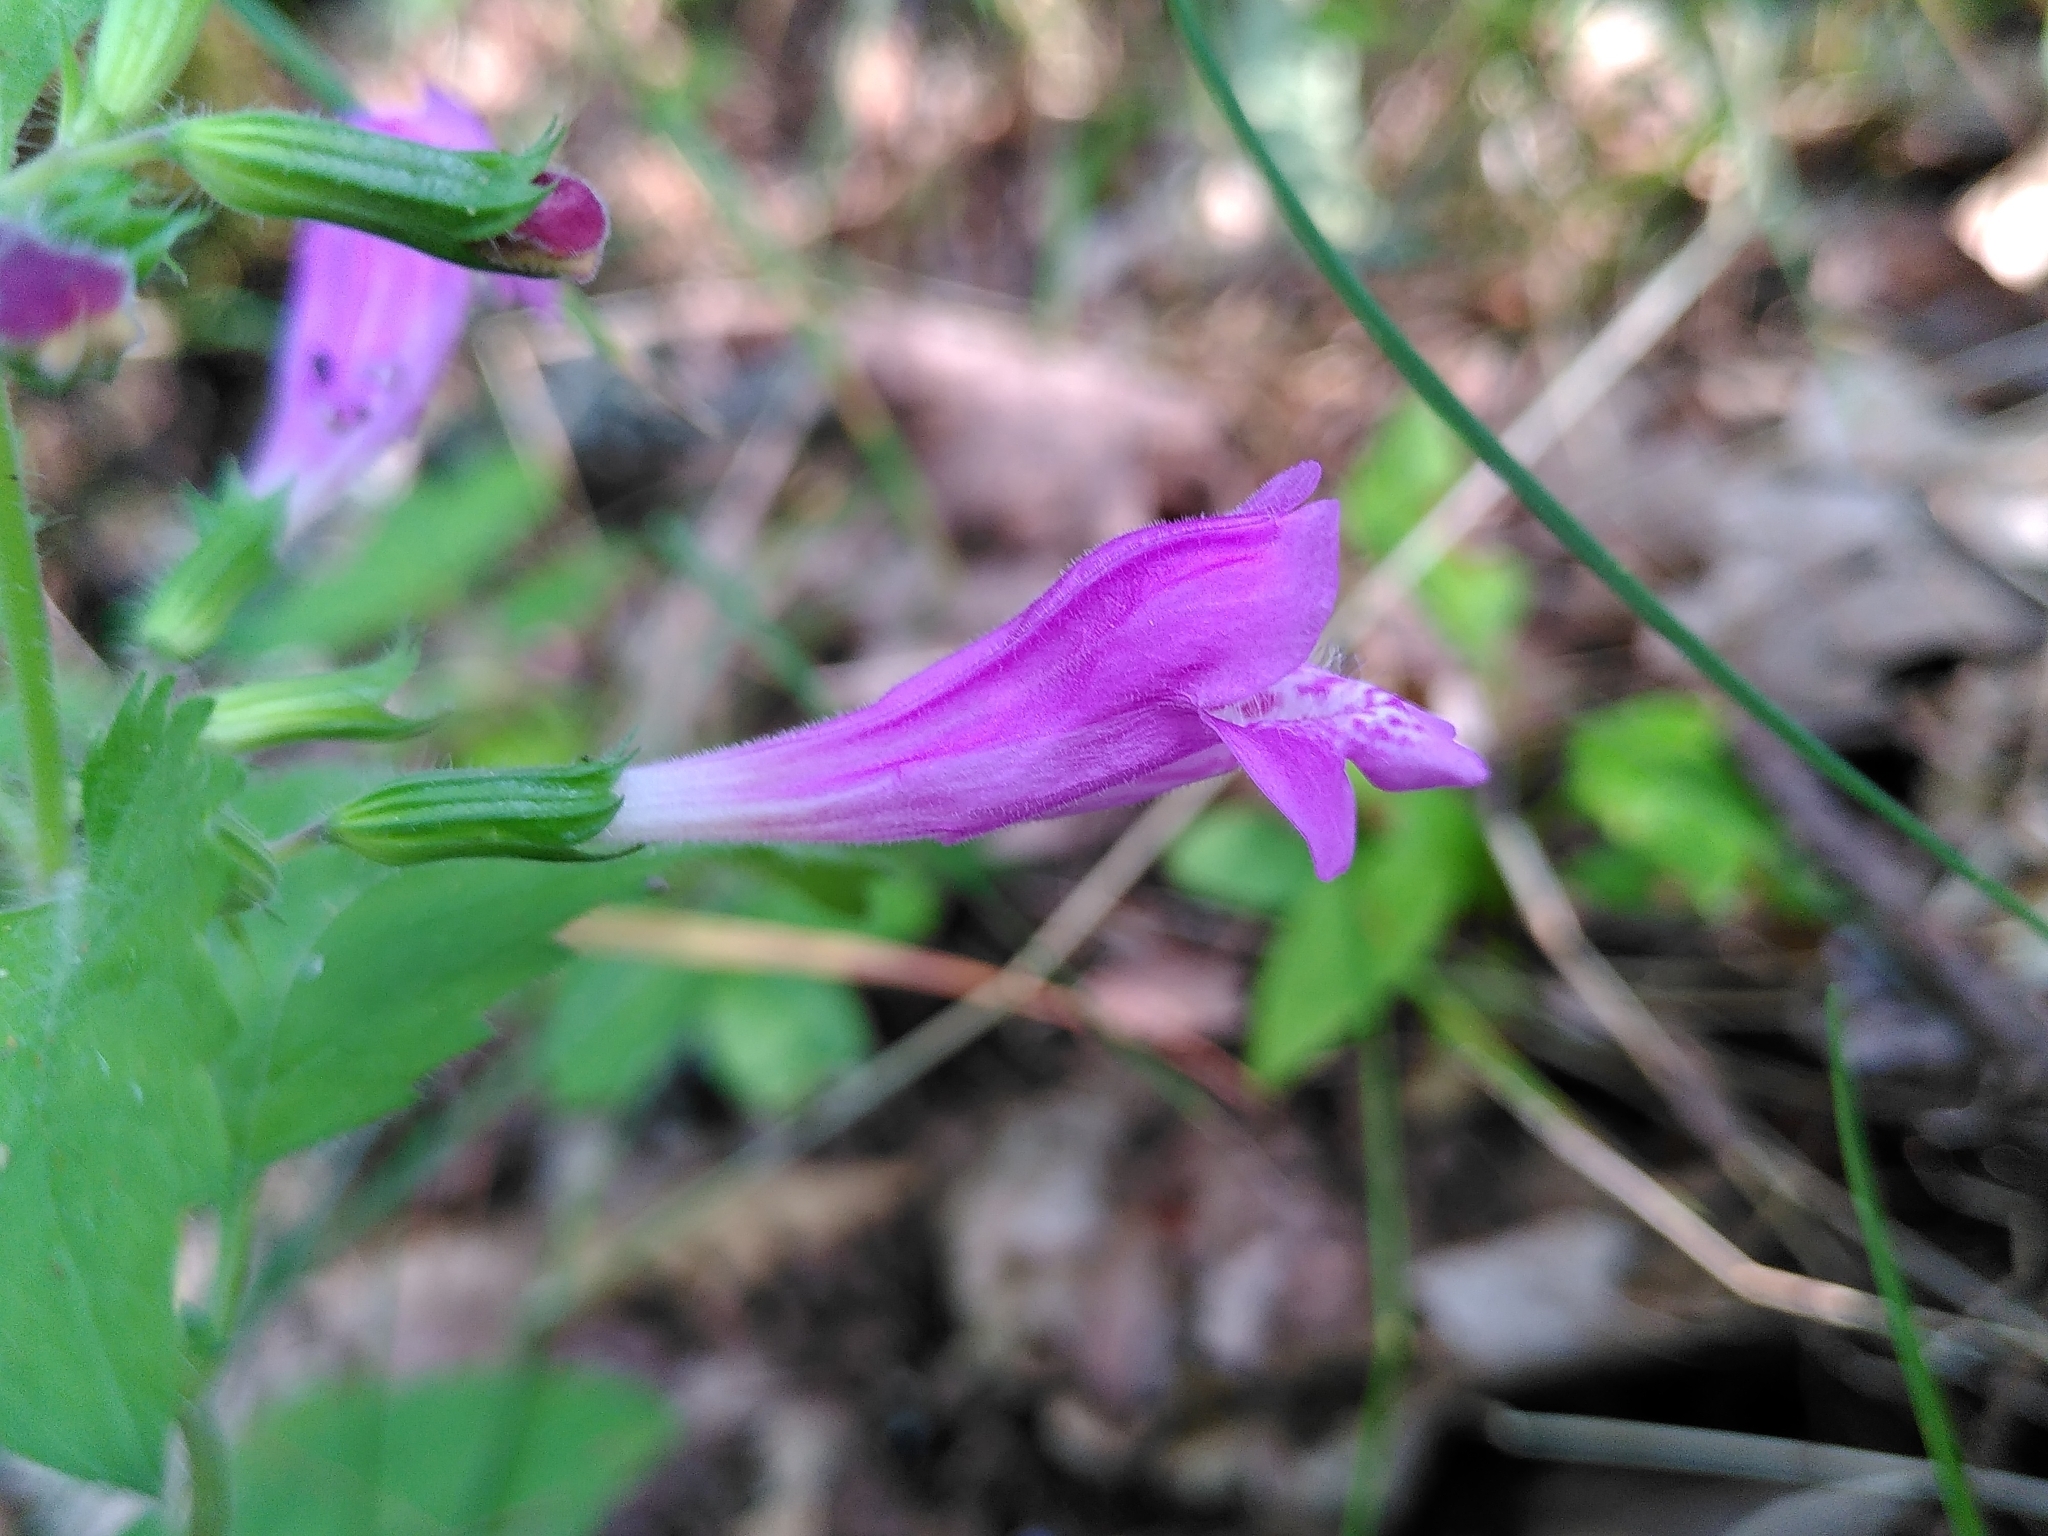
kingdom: Plantae
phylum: Tracheophyta
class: Magnoliopsida
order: Lamiales
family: Lamiaceae
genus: Clinopodium
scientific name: Clinopodium grandiflorum
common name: Greater calamint
